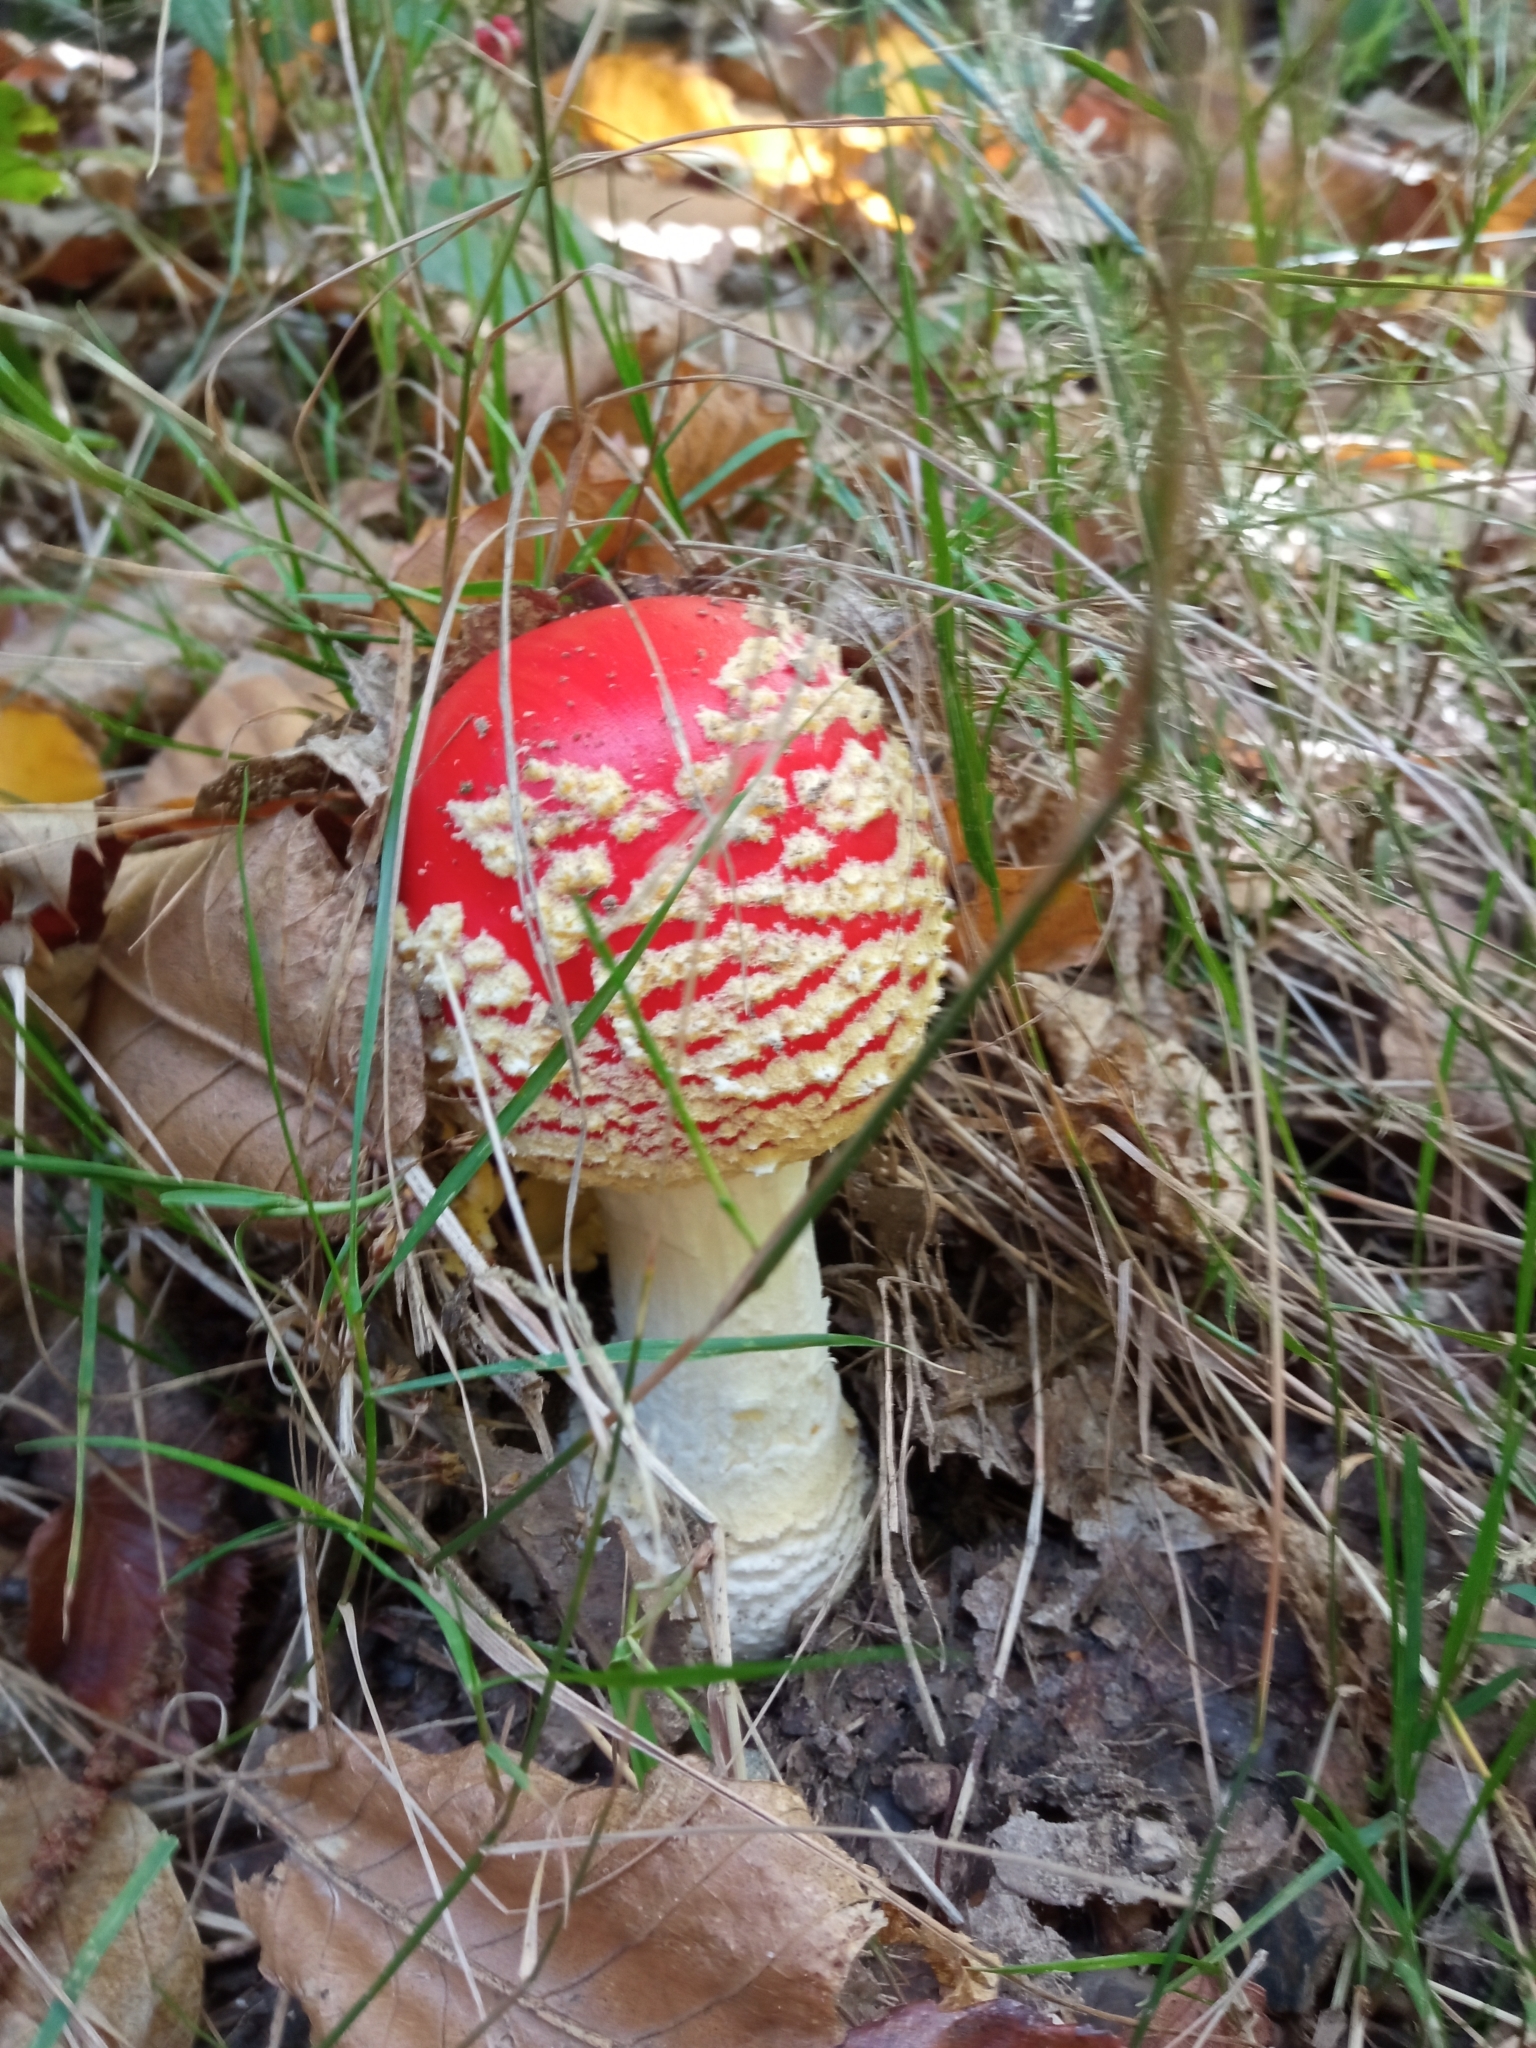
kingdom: Fungi
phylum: Basidiomycota
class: Agaricomycetes
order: Agaricales
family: Amanitaceae
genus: Amanita
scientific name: Amanita muscaria
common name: Fly agaric
